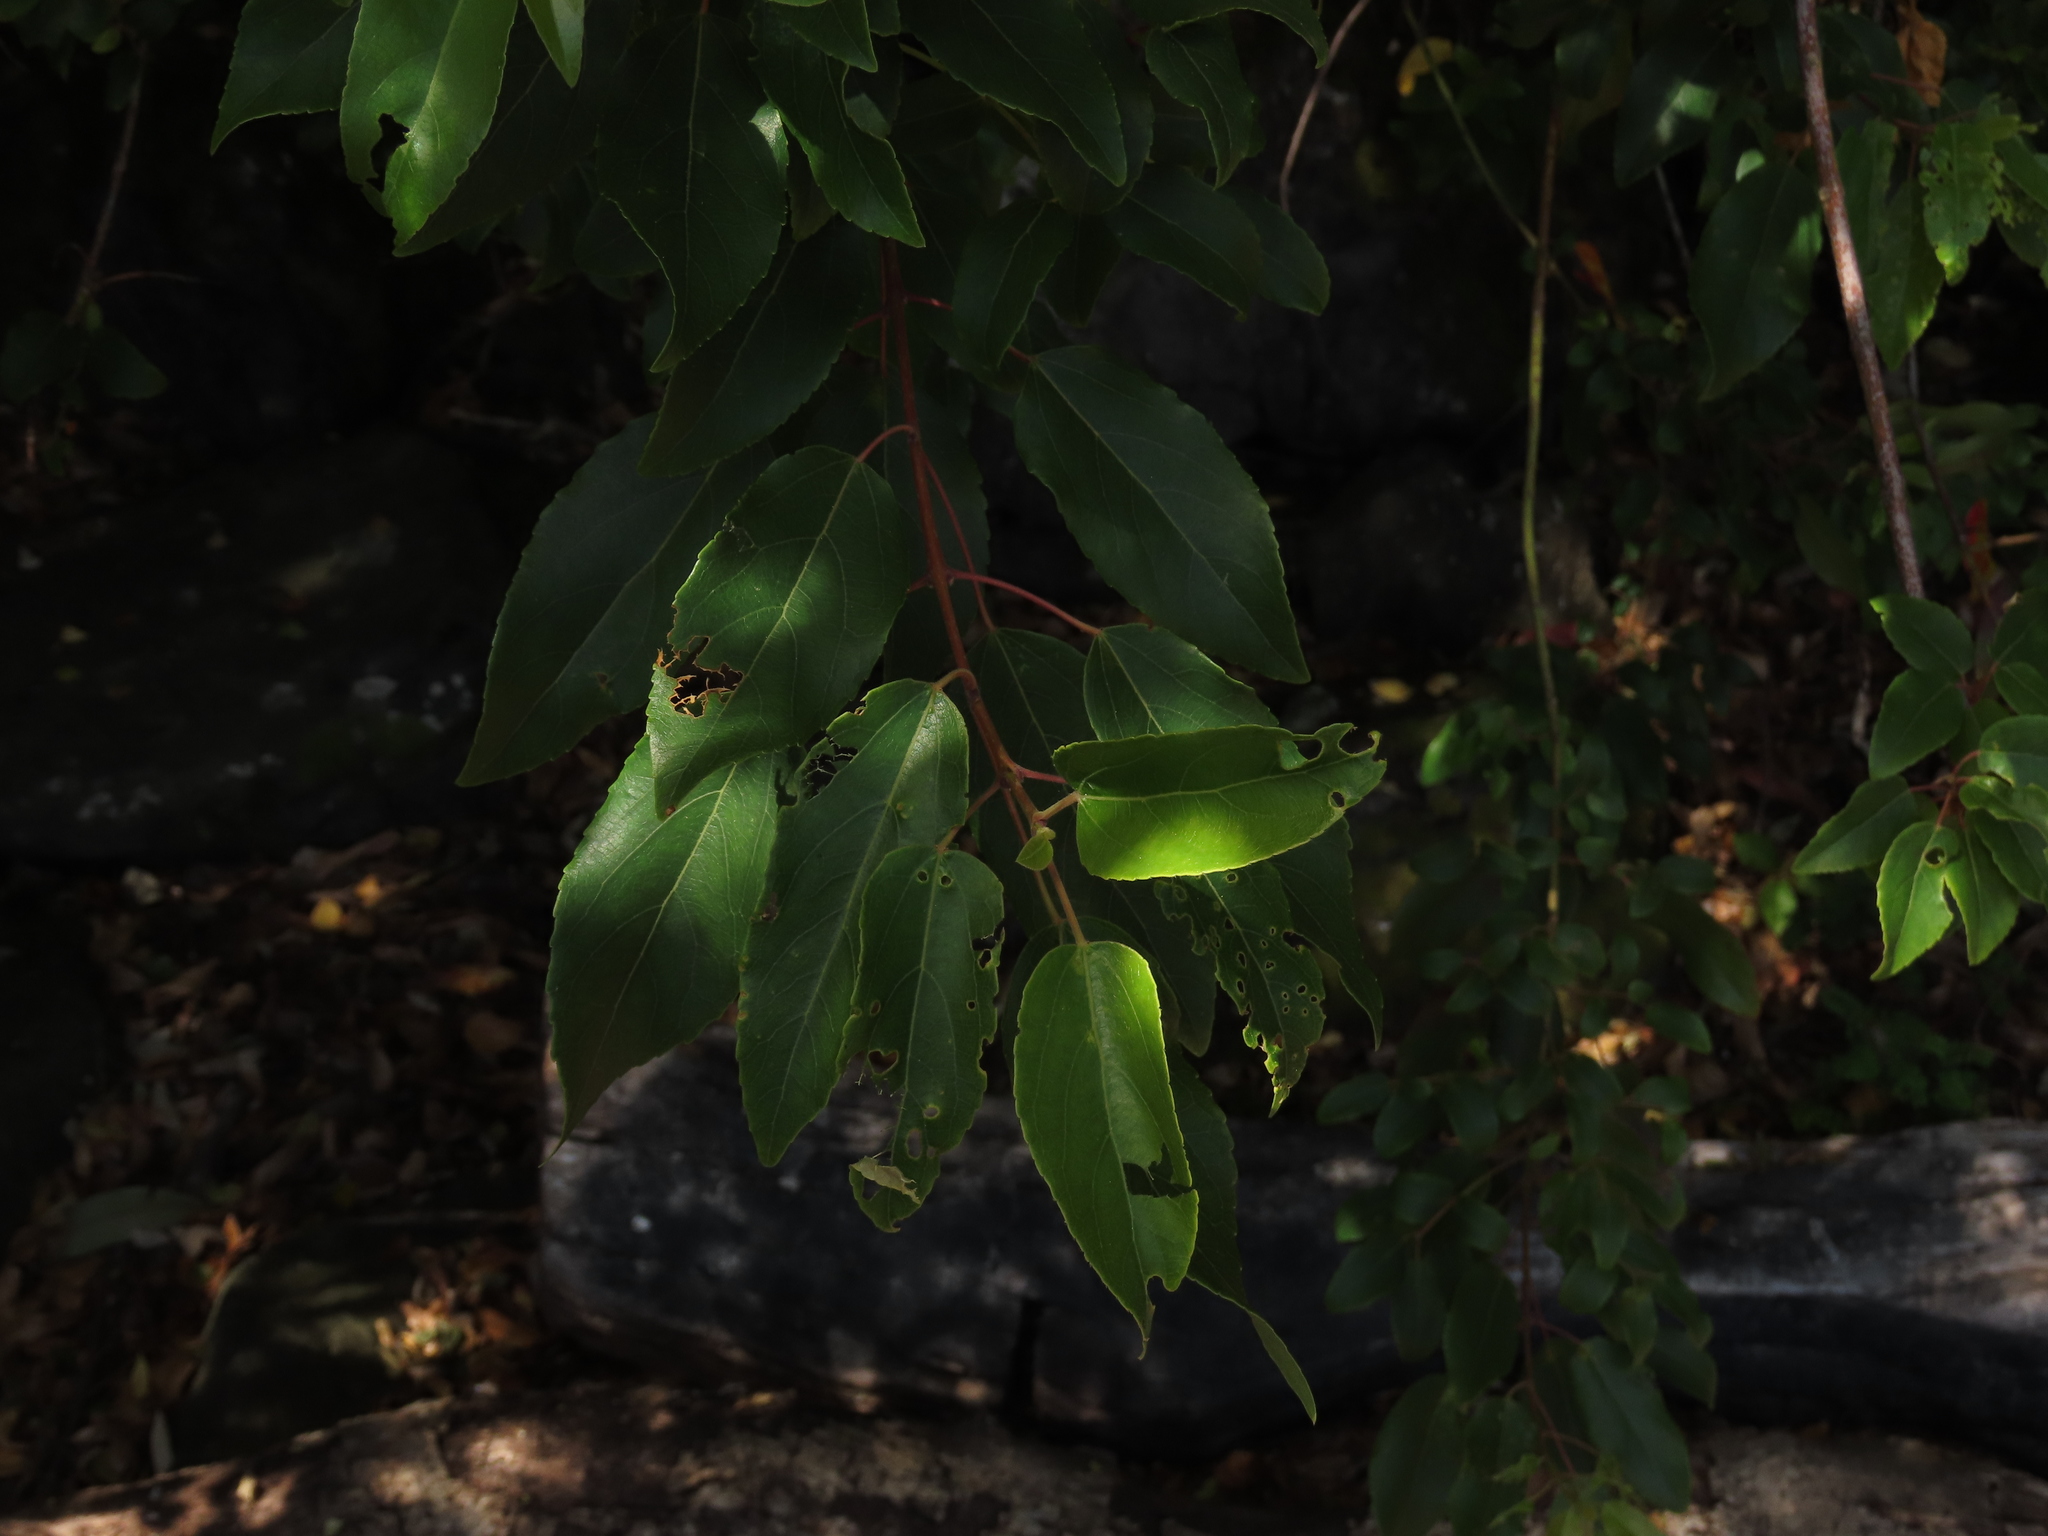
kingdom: Plantae
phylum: Tracheophyta
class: Magnoliopsida
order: Oxalidales
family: Elaeocarpaceae
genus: Aristotelia
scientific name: Aristotelia chilensis
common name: Maquei
